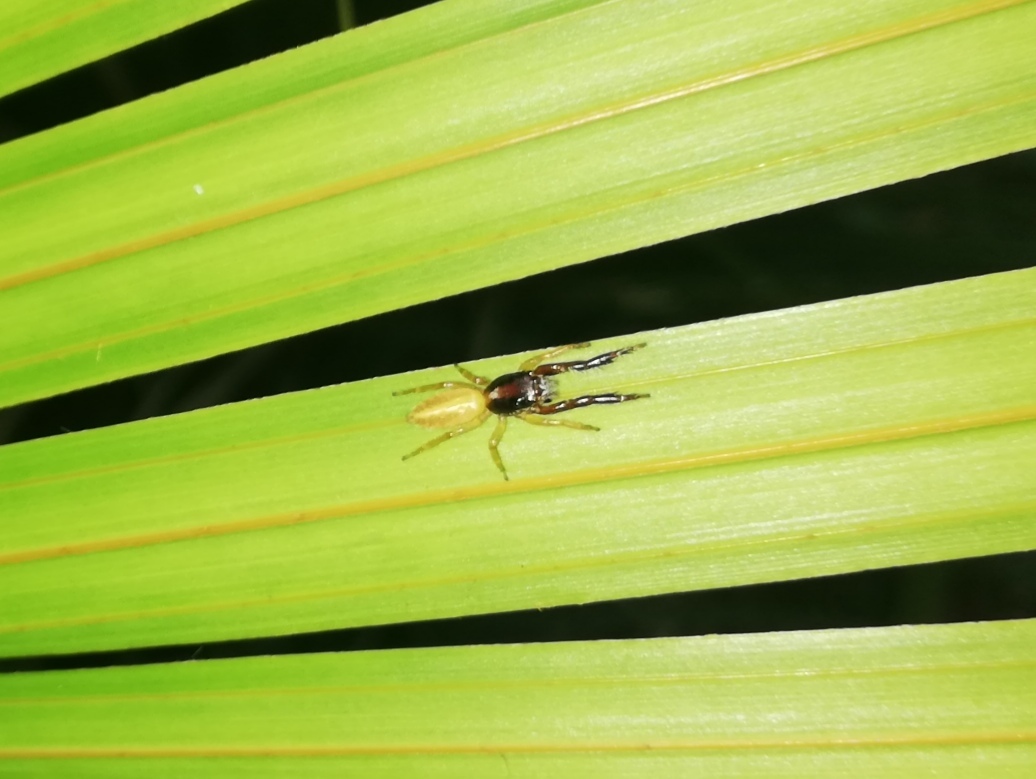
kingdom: Animalia
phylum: Arthropoda
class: Arachnida
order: Araneae
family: Salticidae
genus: Trite
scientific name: Trite planiceps
